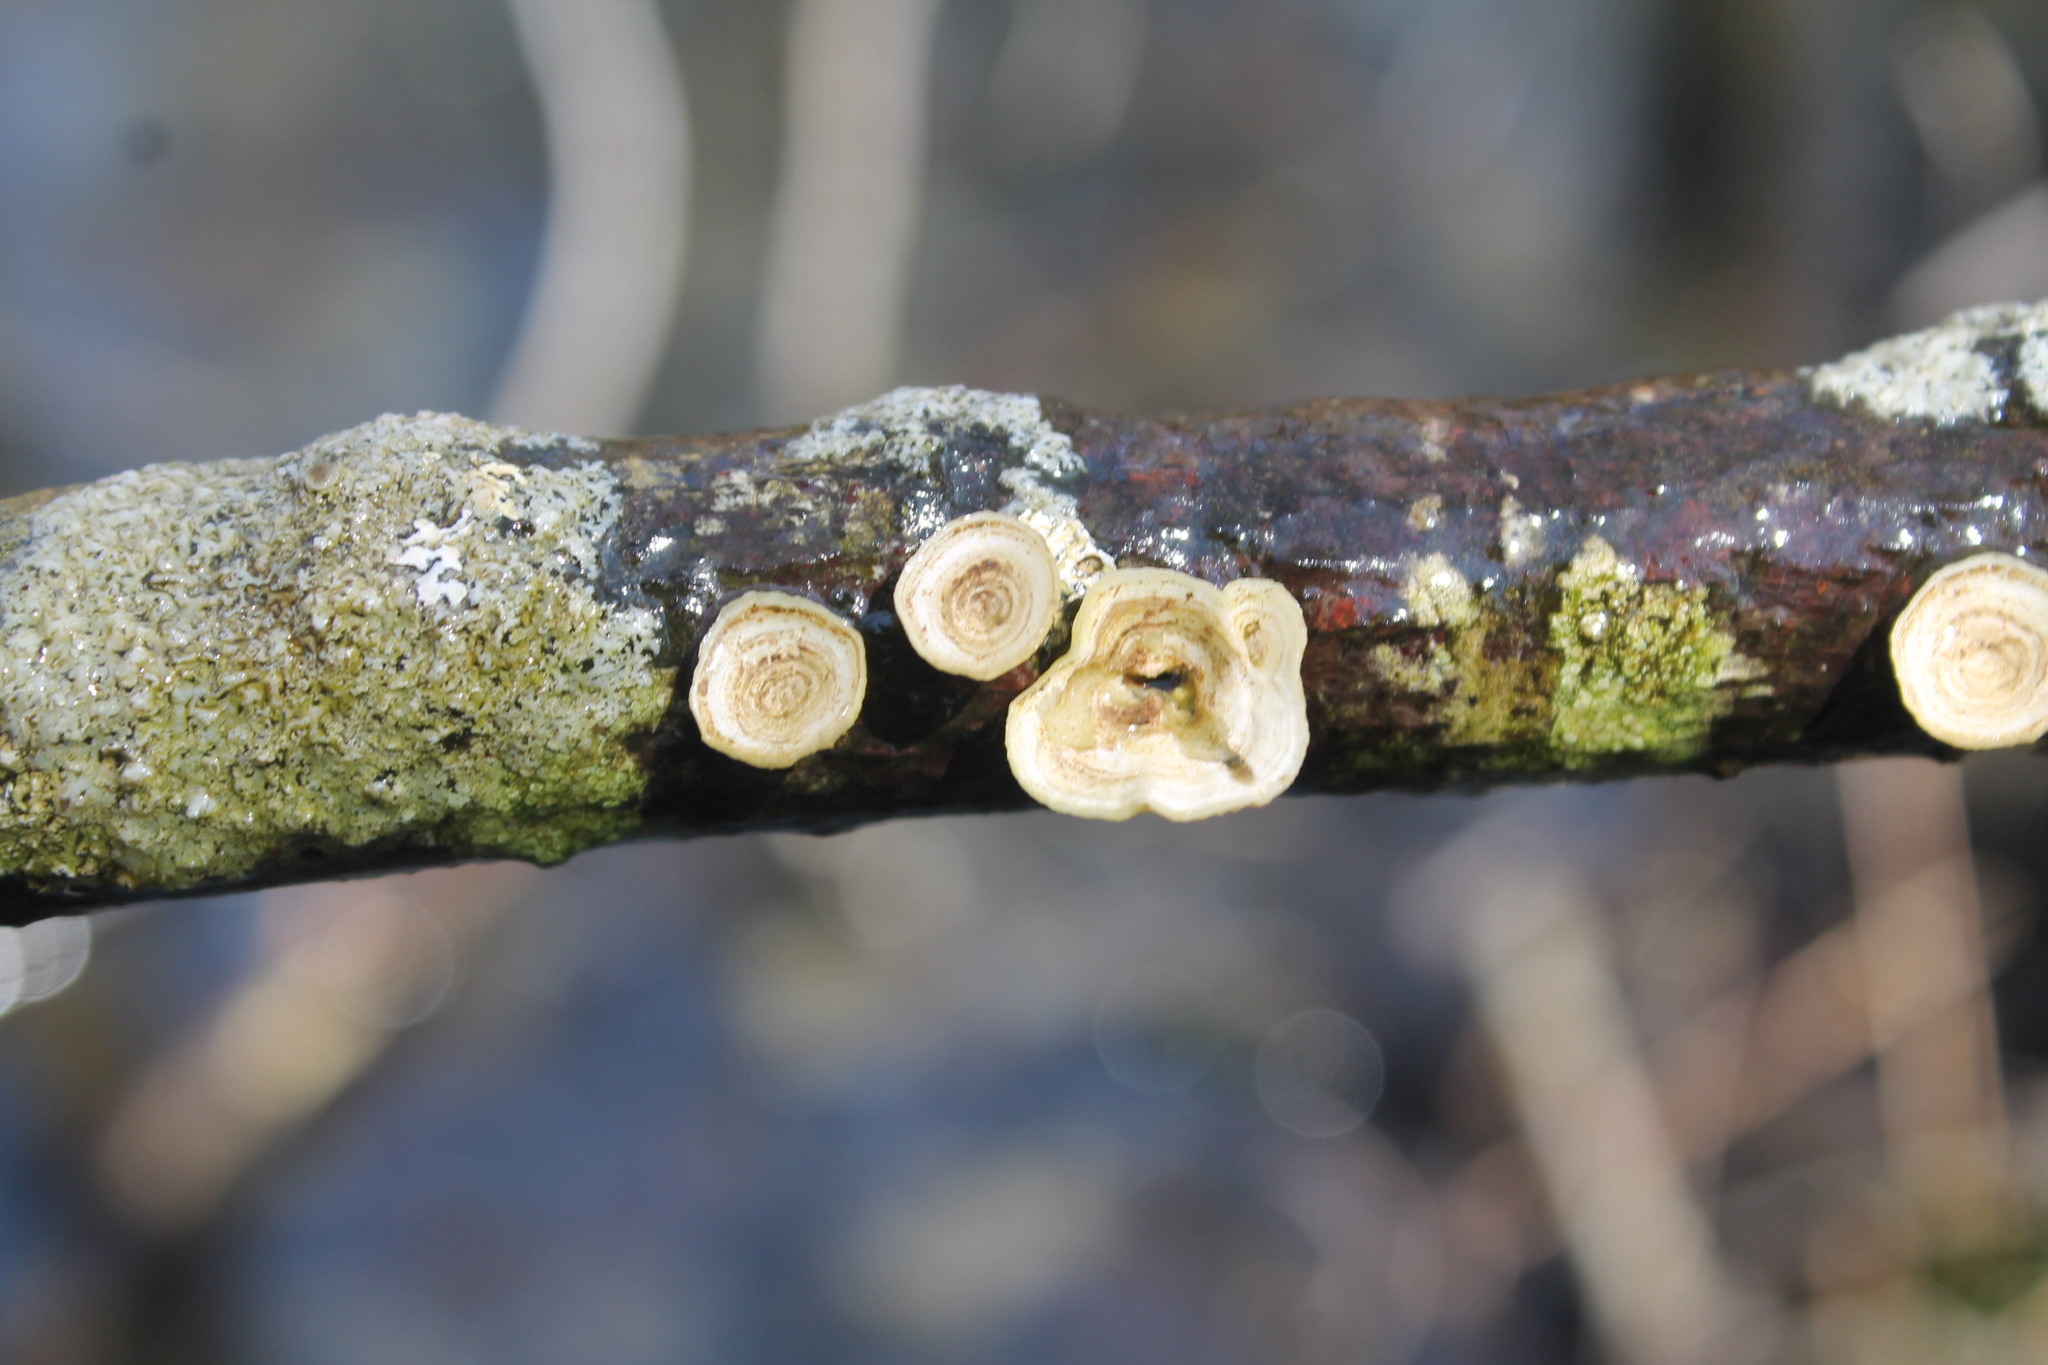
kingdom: Fungi
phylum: Basidiomycota
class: Agaricomycetes
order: Polyporales
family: Polyporaceae
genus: Poronidulus
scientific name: Poronidulus conchifer
